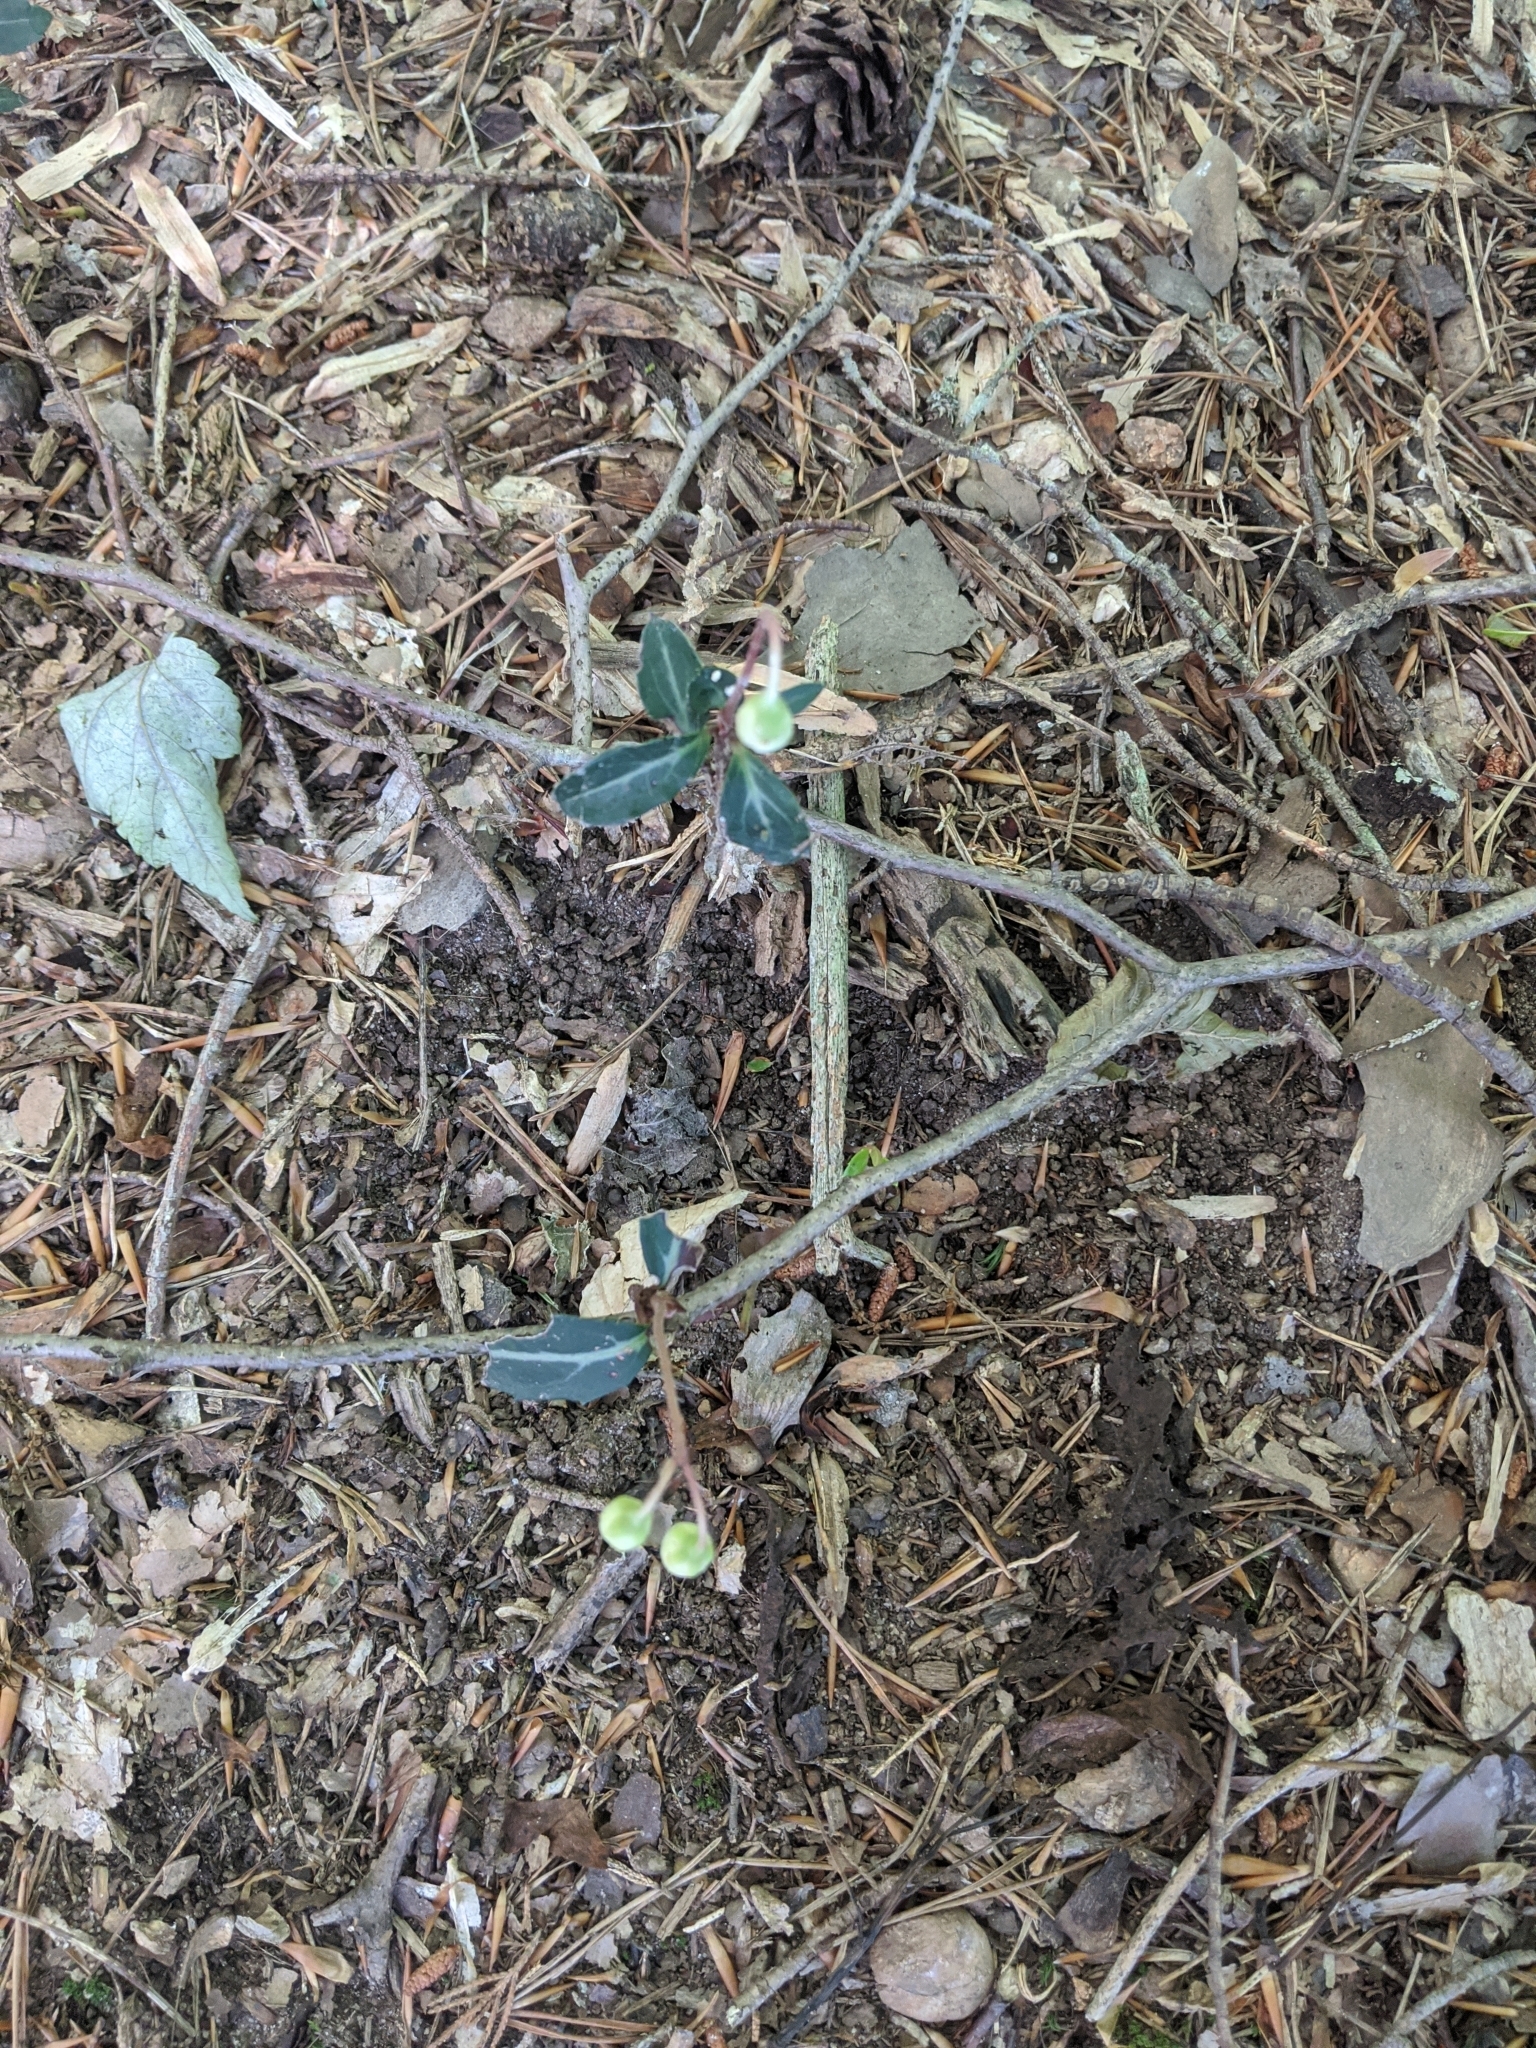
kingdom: Plantae
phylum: Tracheophyta
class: Magnoliopsida
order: Ericales
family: Ericaceae
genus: Chimaphila
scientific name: Chimaphila maculata
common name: Spotted pipsissewa
